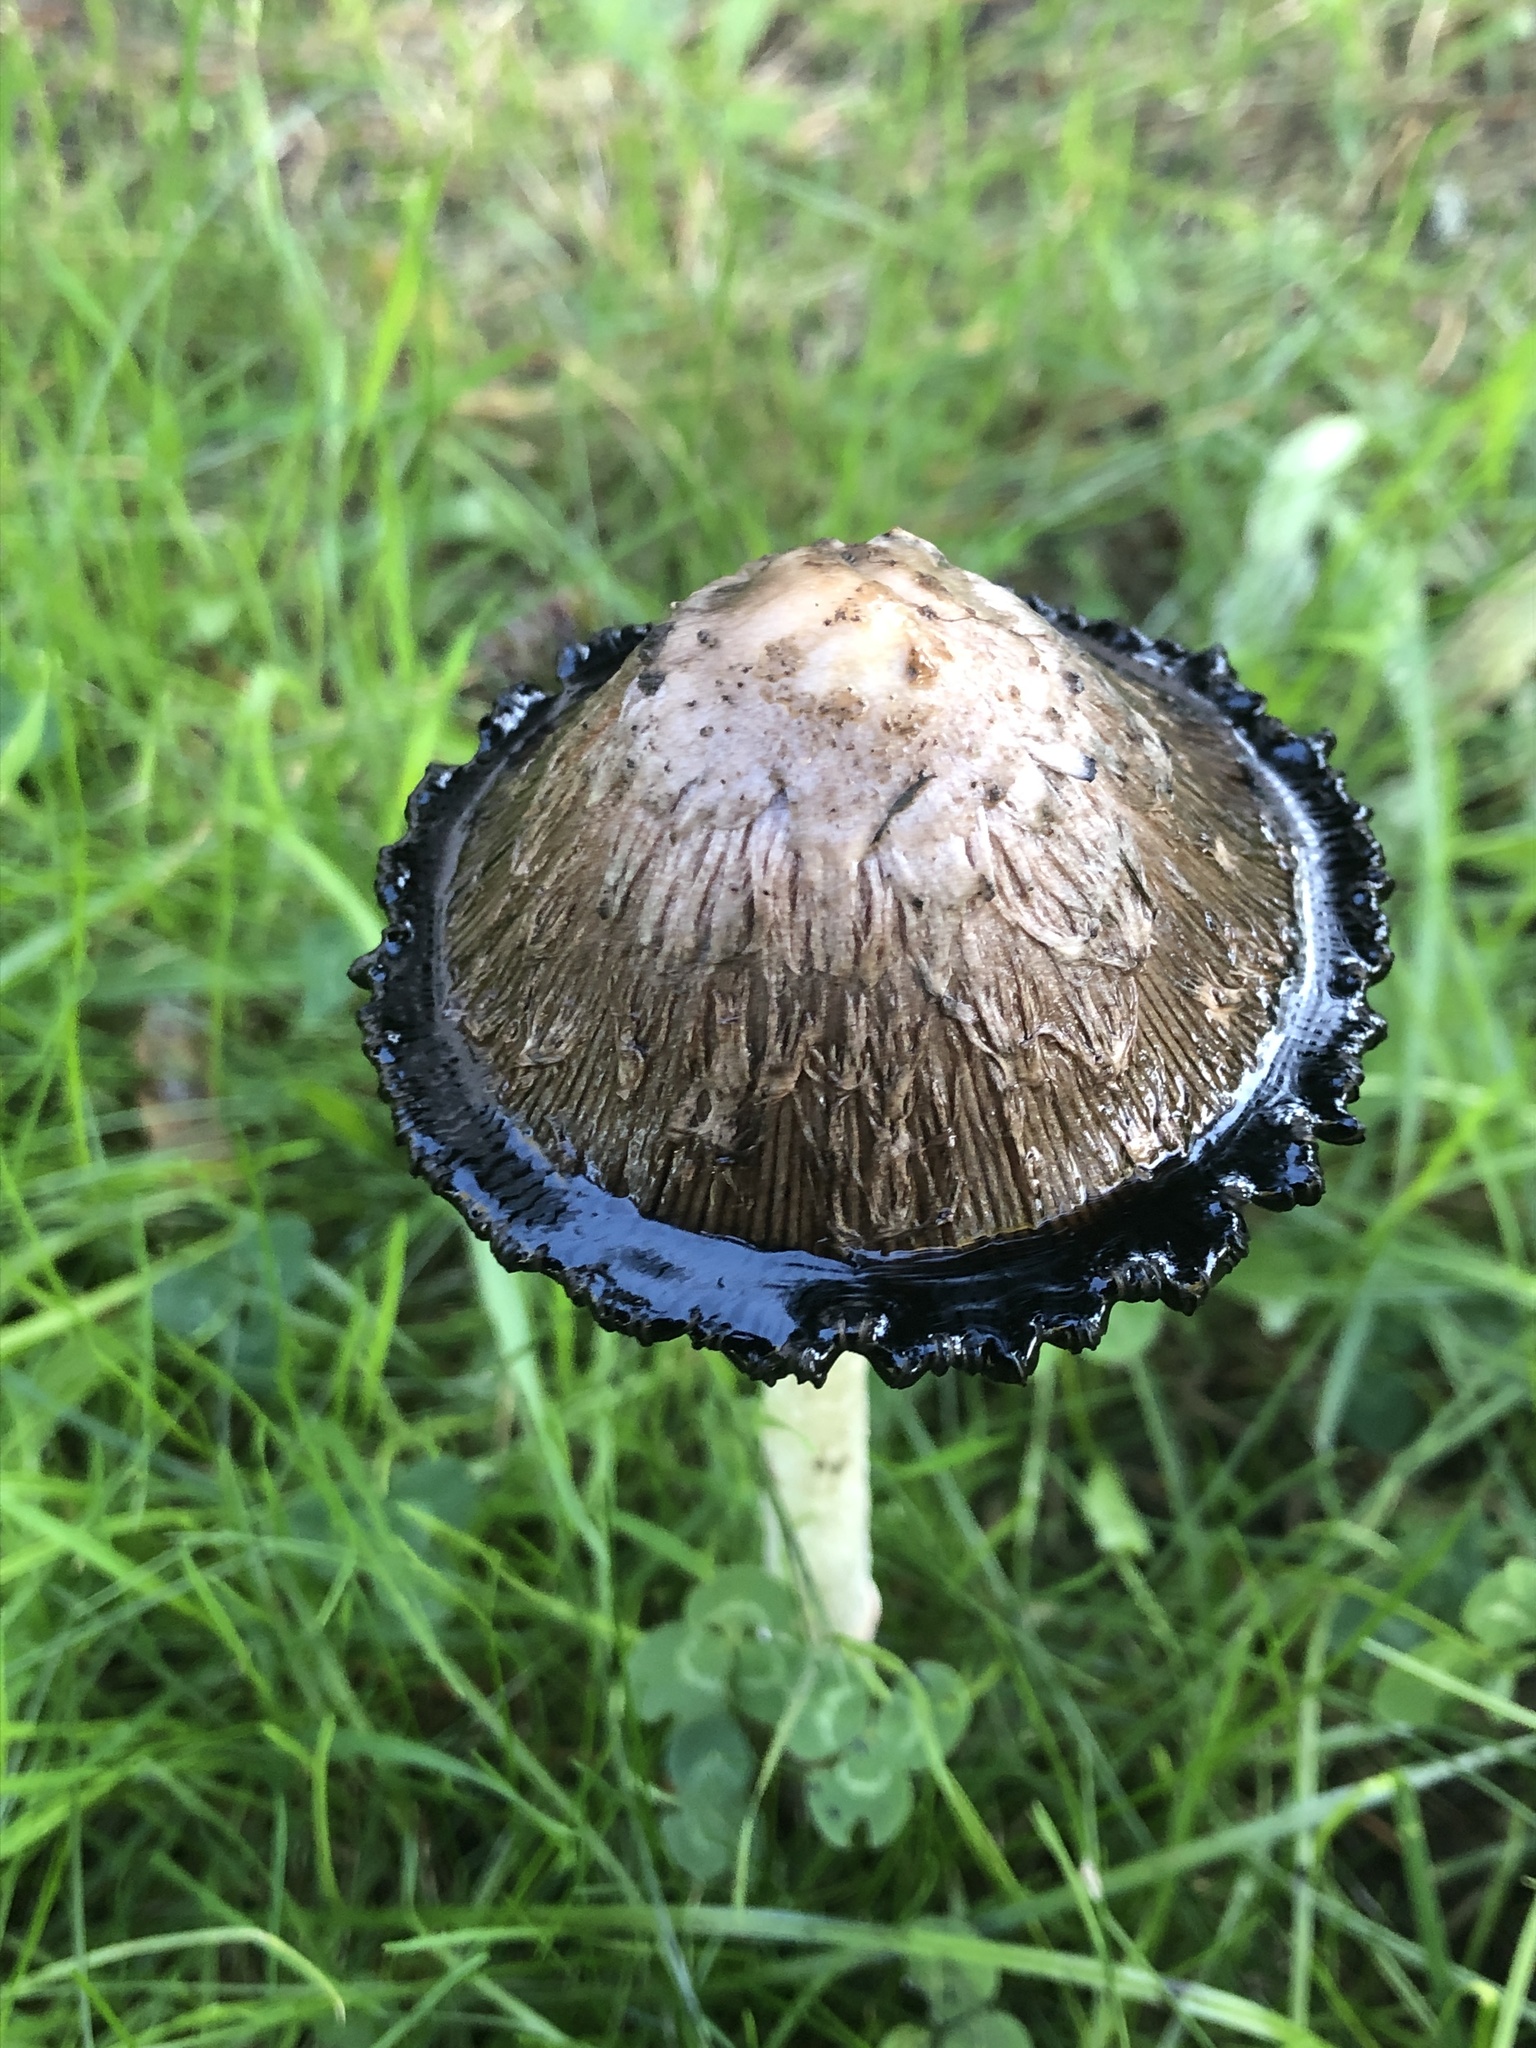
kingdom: Fungi
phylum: Basidiomycota
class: Agaricomycetes
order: Agaricales
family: Agaricaceae
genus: Coprinus
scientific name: Coprinus comatus
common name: Lawyer's wig
